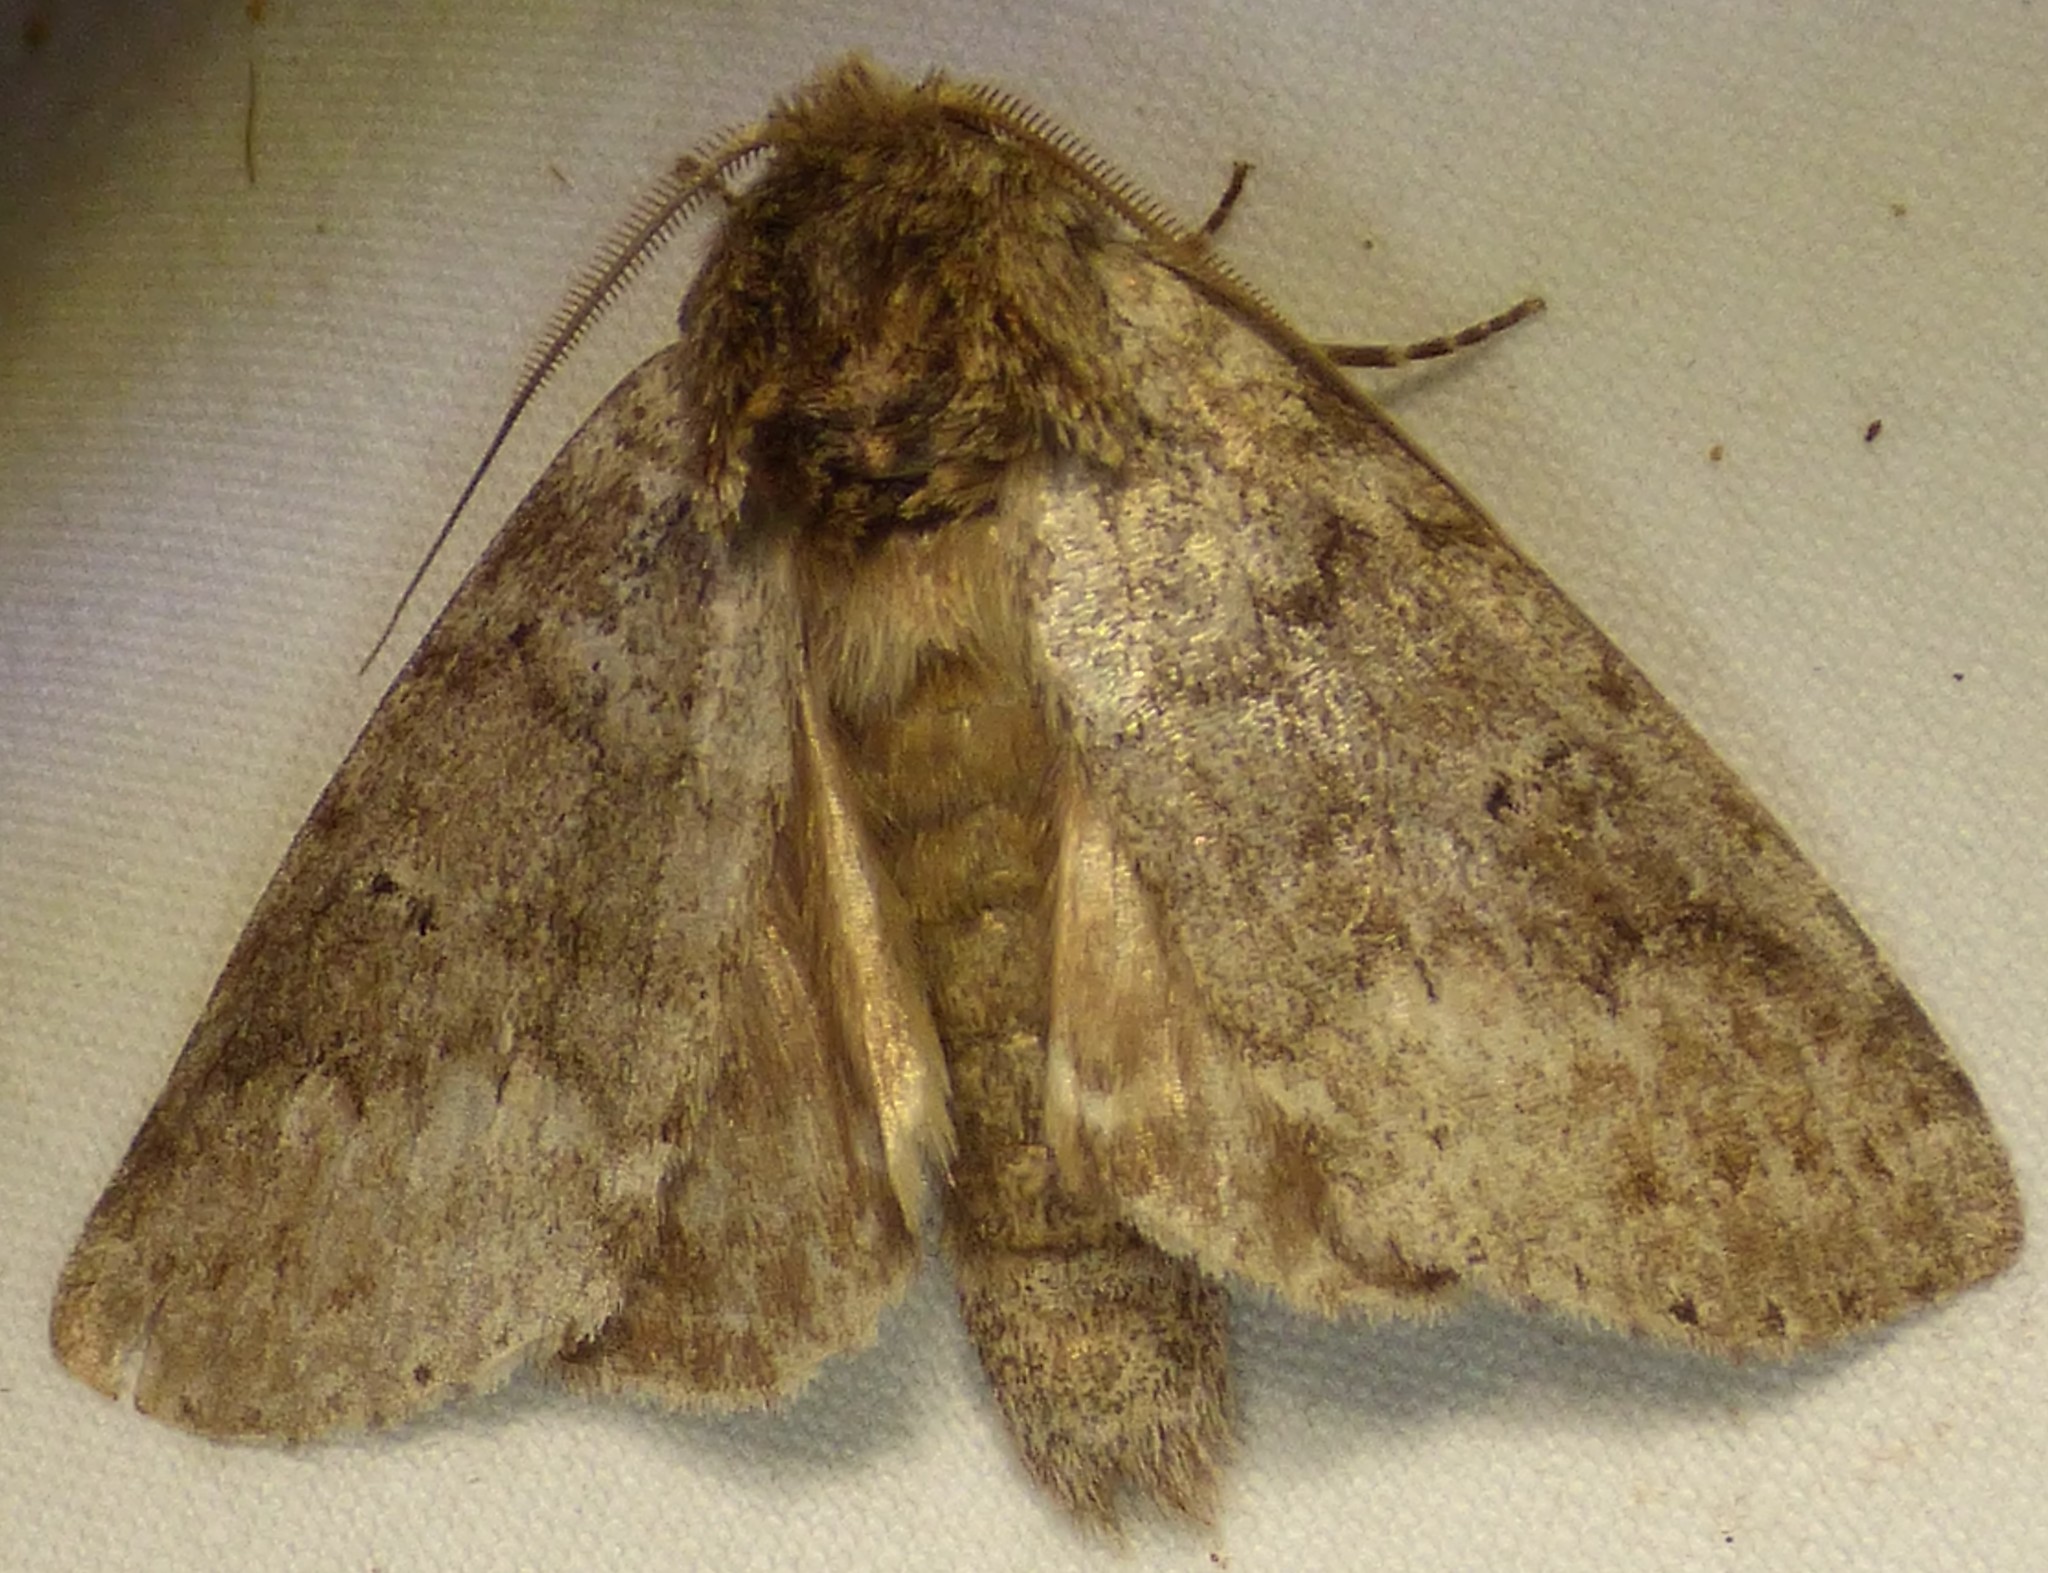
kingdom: Animalia
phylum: Arthropoda
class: Insecta
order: Lepidoptera
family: Notodontidae
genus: Lochmaeus
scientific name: Lochmaeus manteo
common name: Variable oakleaf caterpillar moth
